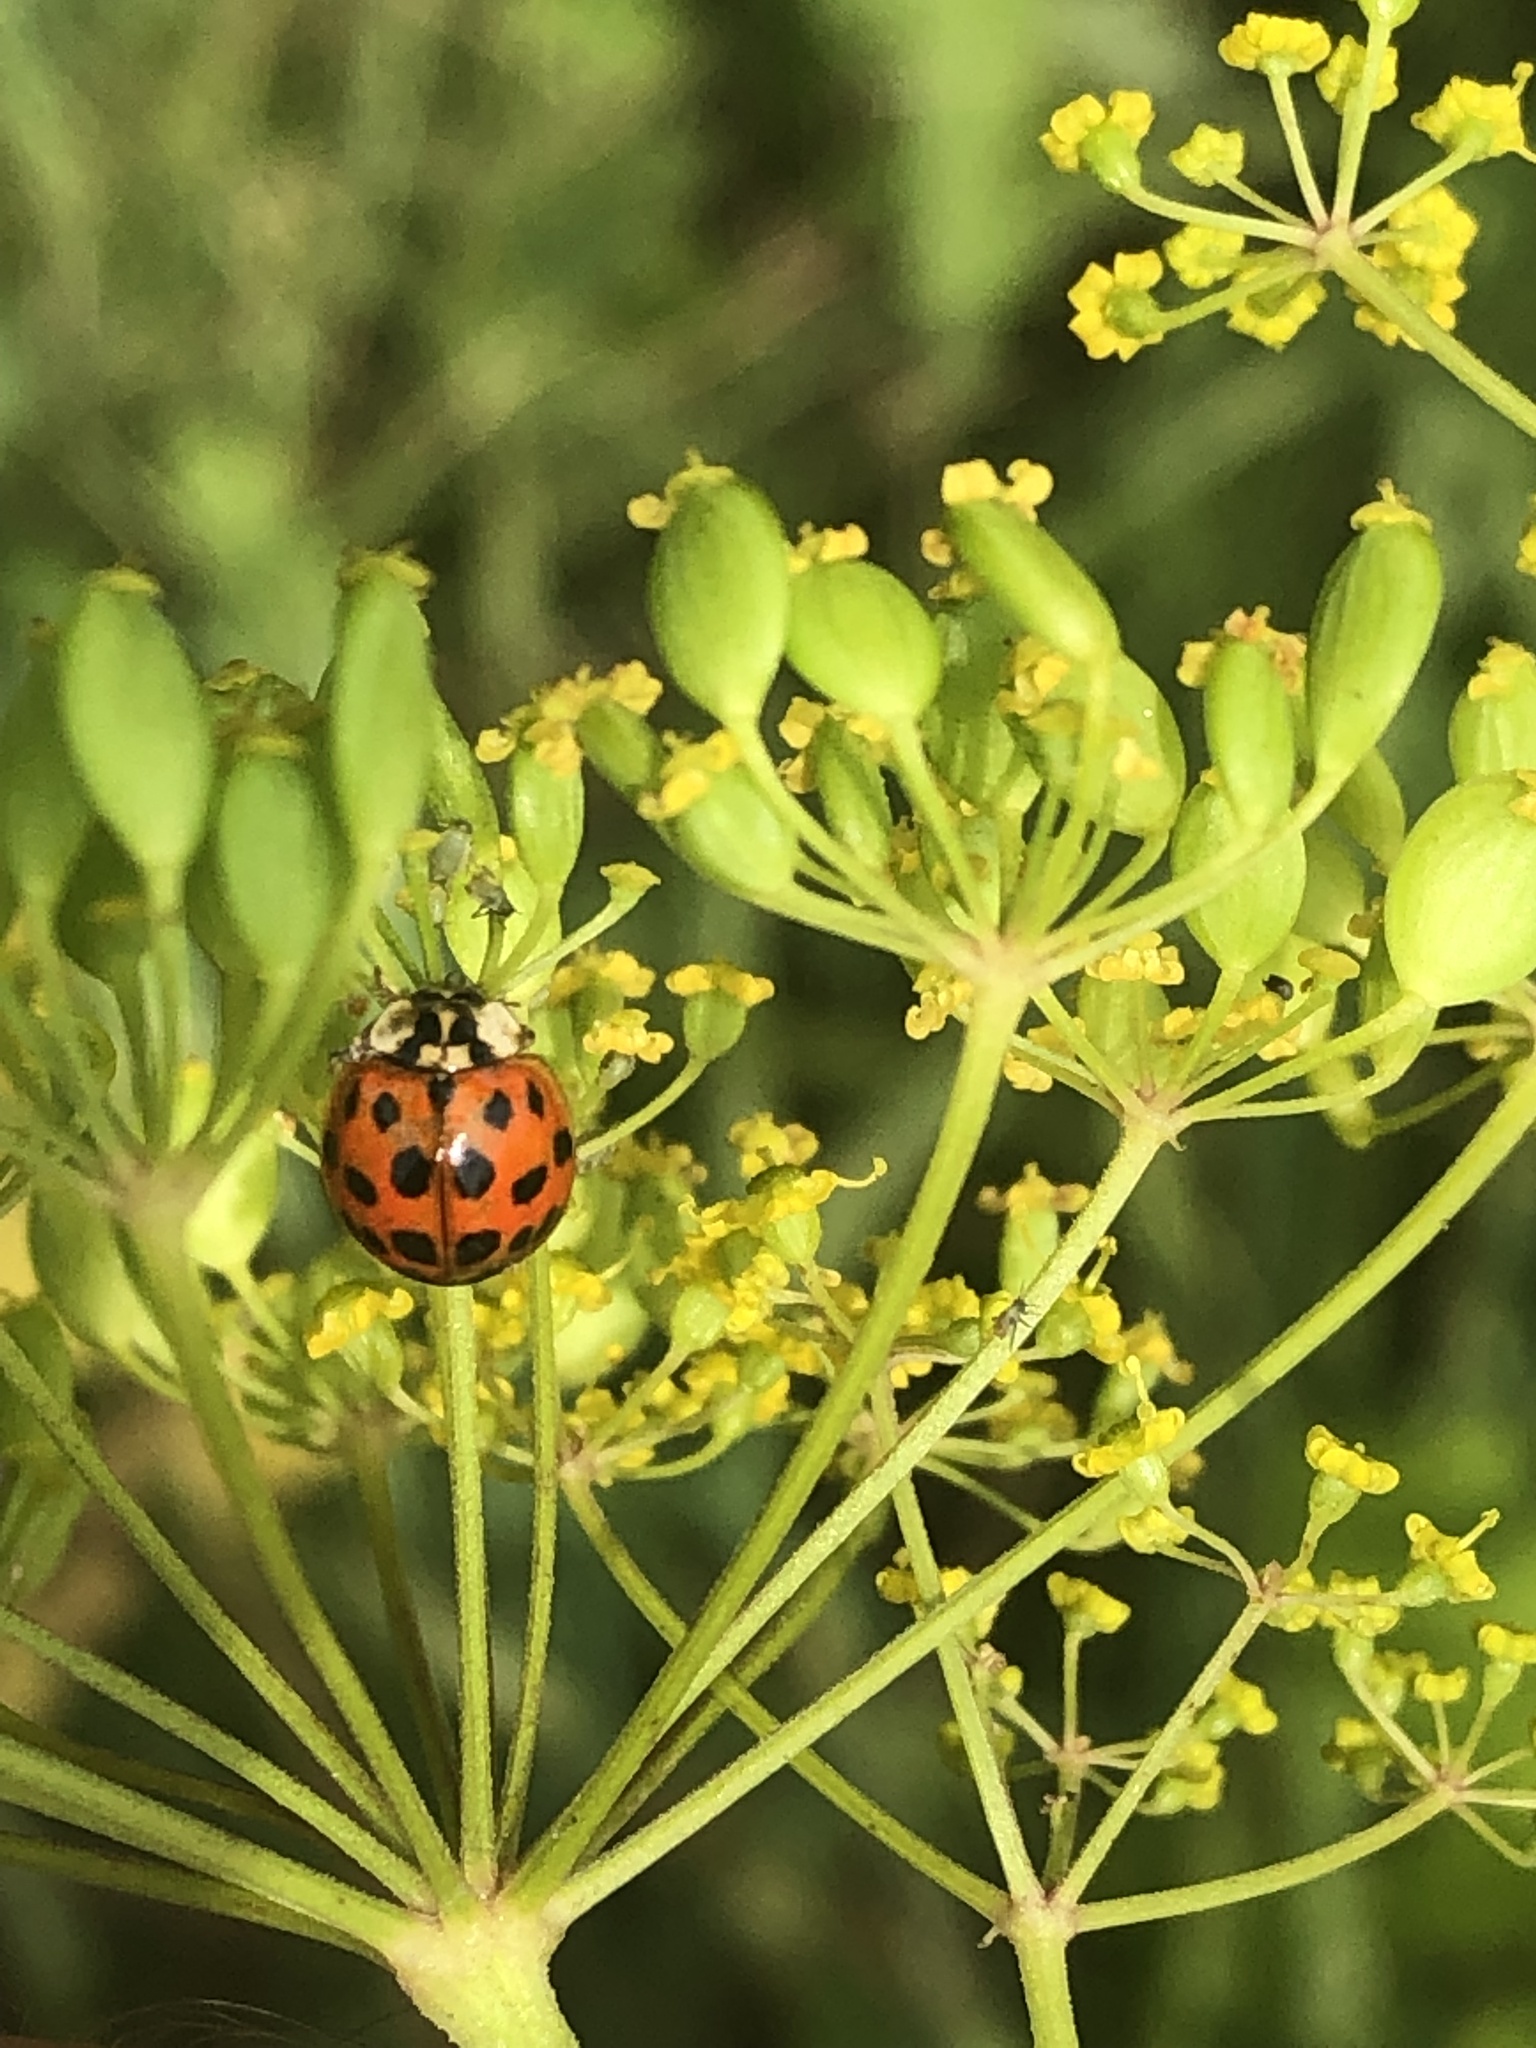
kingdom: Animalia
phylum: Arthropoda
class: Insecta
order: Coleoptera
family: Coccinellidae
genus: Harmonia
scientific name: Harmonia axyridis
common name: Harlequin ladybird
